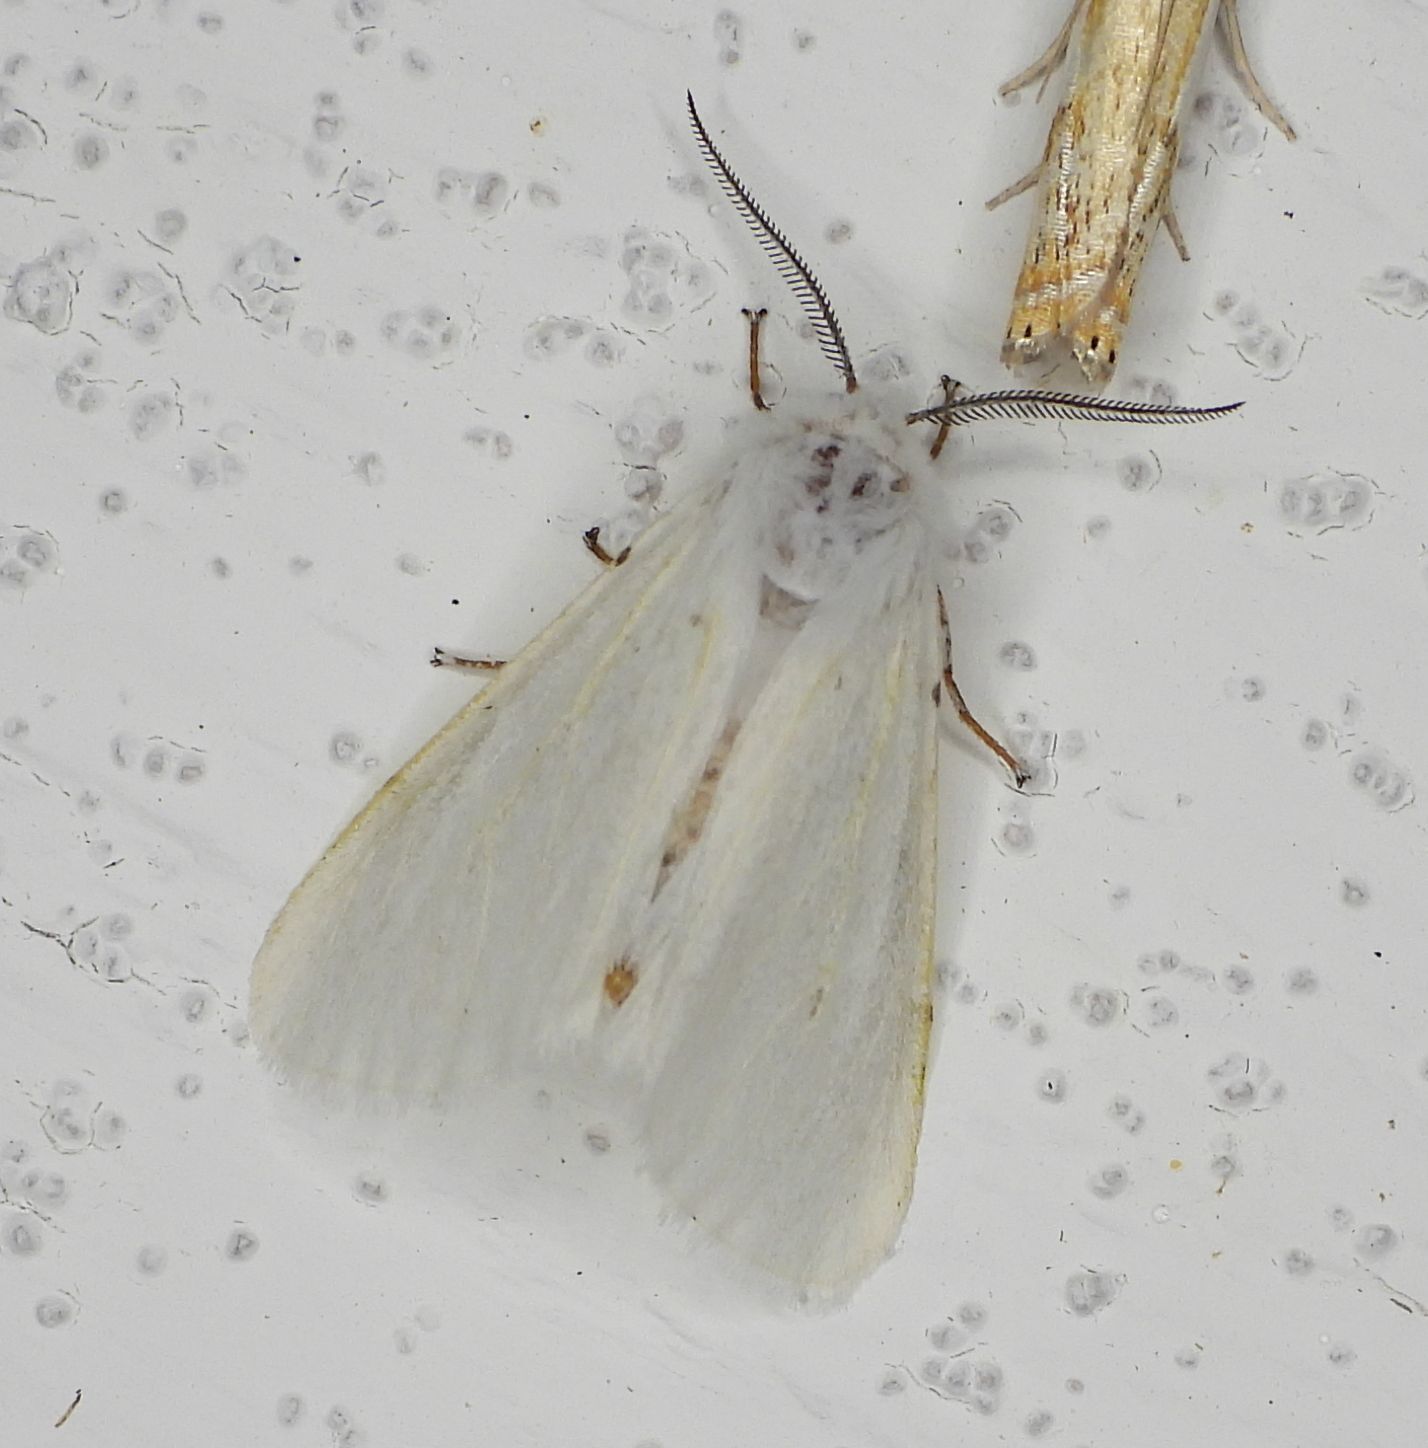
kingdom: Animalia
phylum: Arthropoda
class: Insecta
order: Lepidoptera
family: Erebidae
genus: Hyphantria
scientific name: Hyphantria cunea
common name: American white moth
